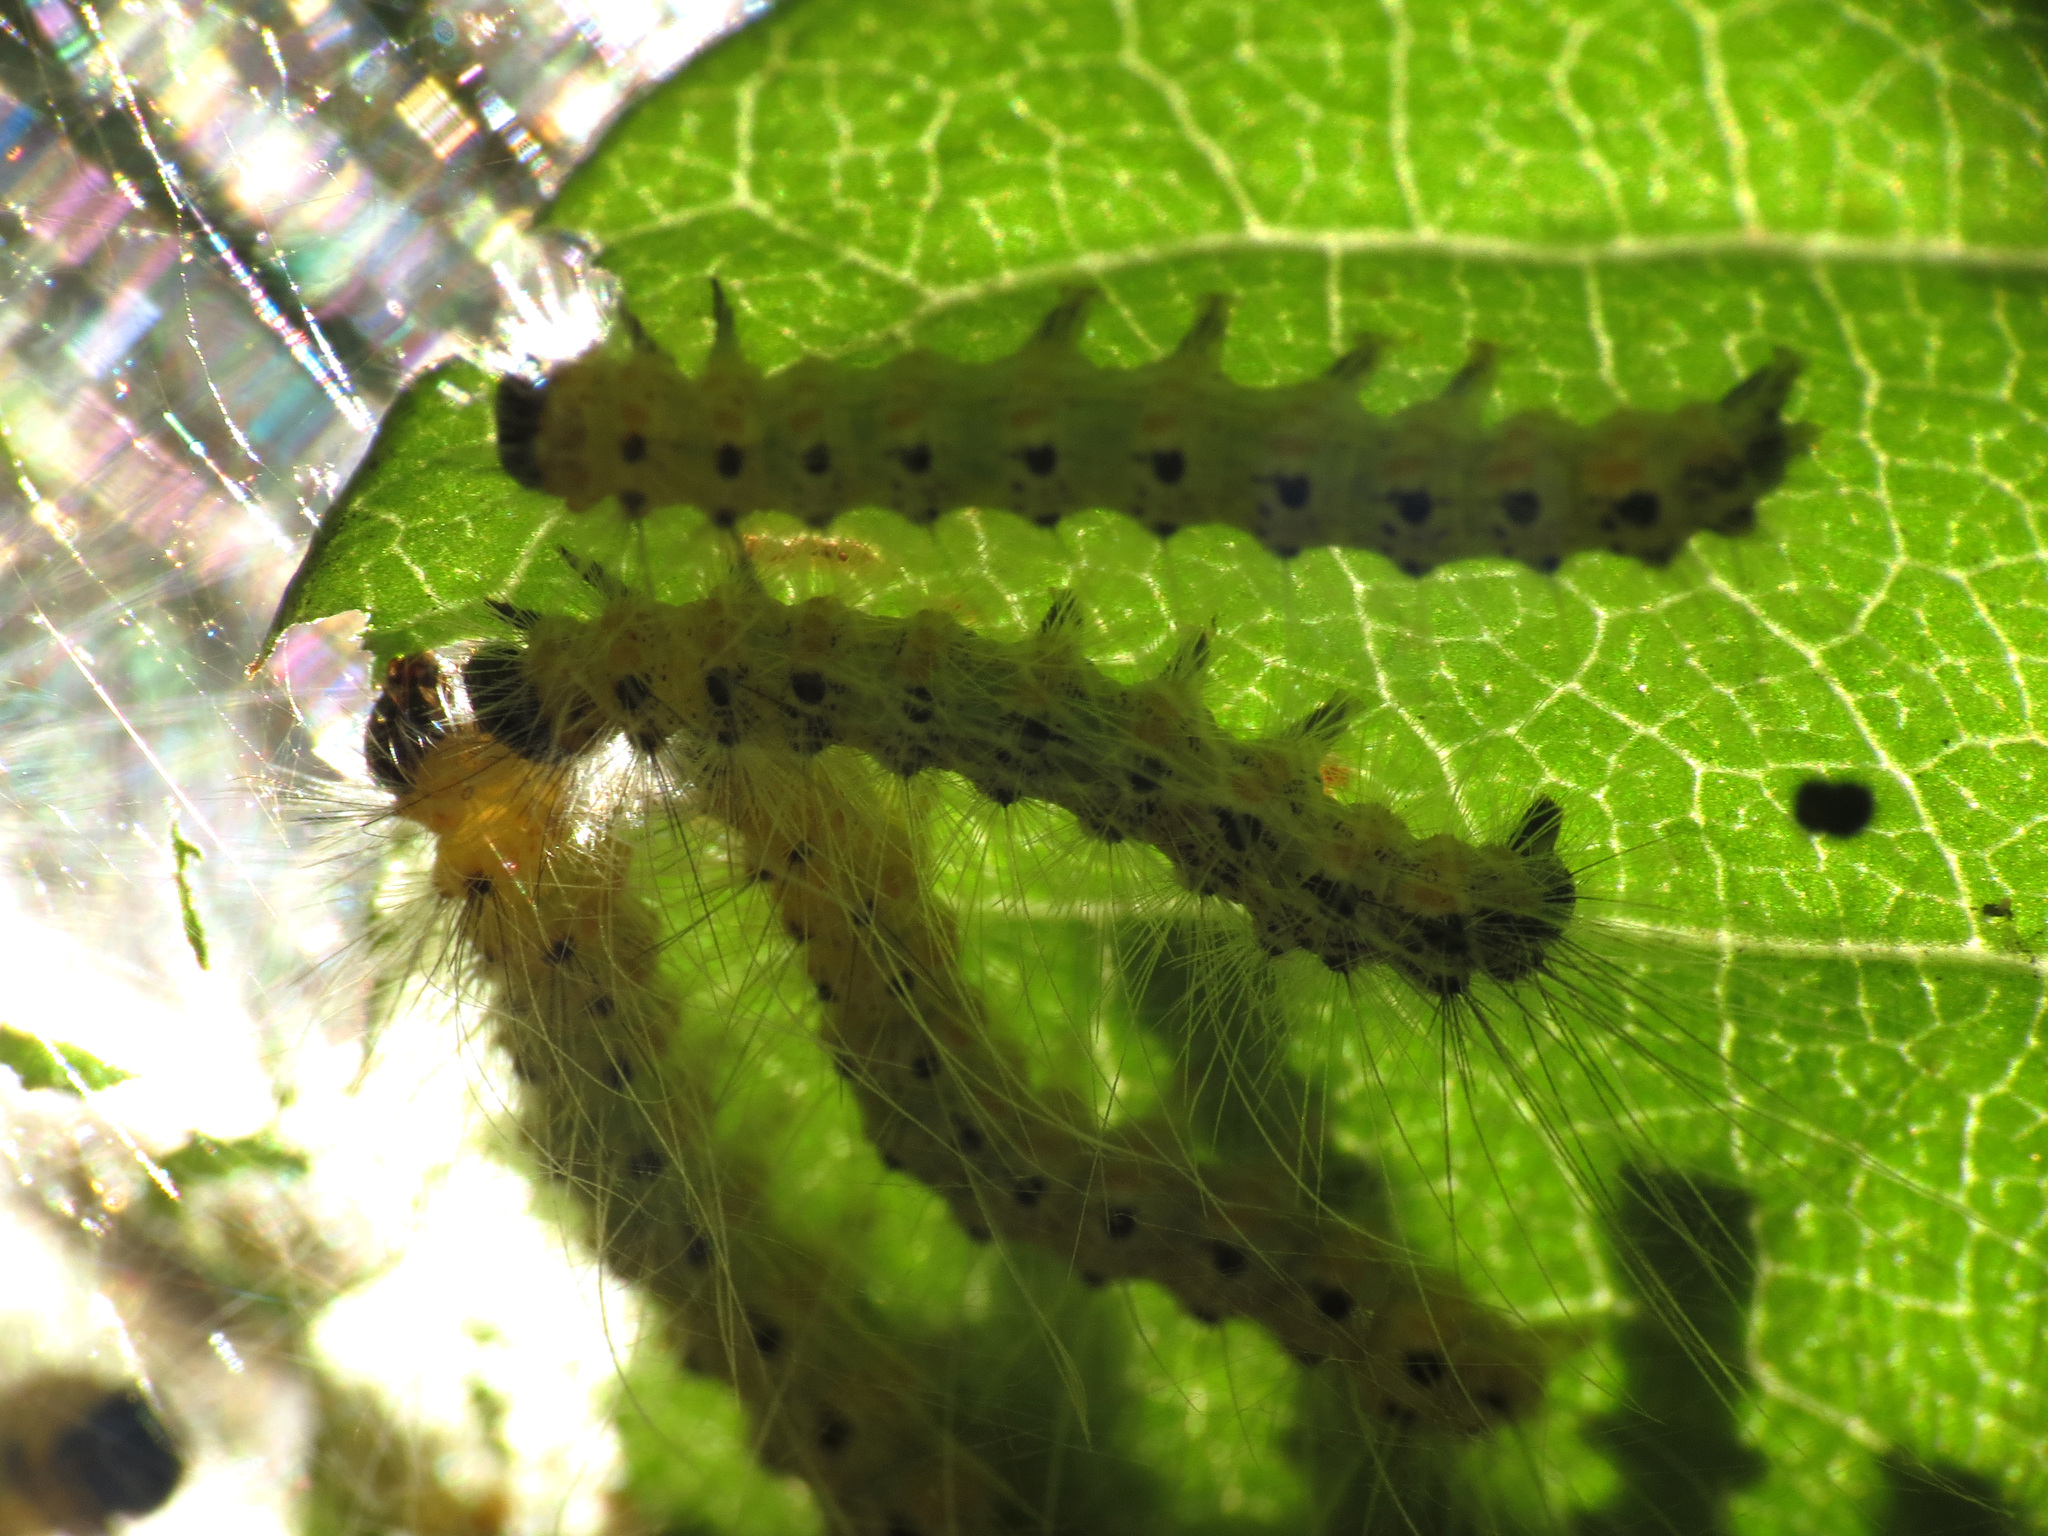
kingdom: Animalia
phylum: Arthropoda
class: Insecta
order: Lepidoptera
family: Erebidae
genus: Hyphantria
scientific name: Hyphantria cunea
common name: American white moth
